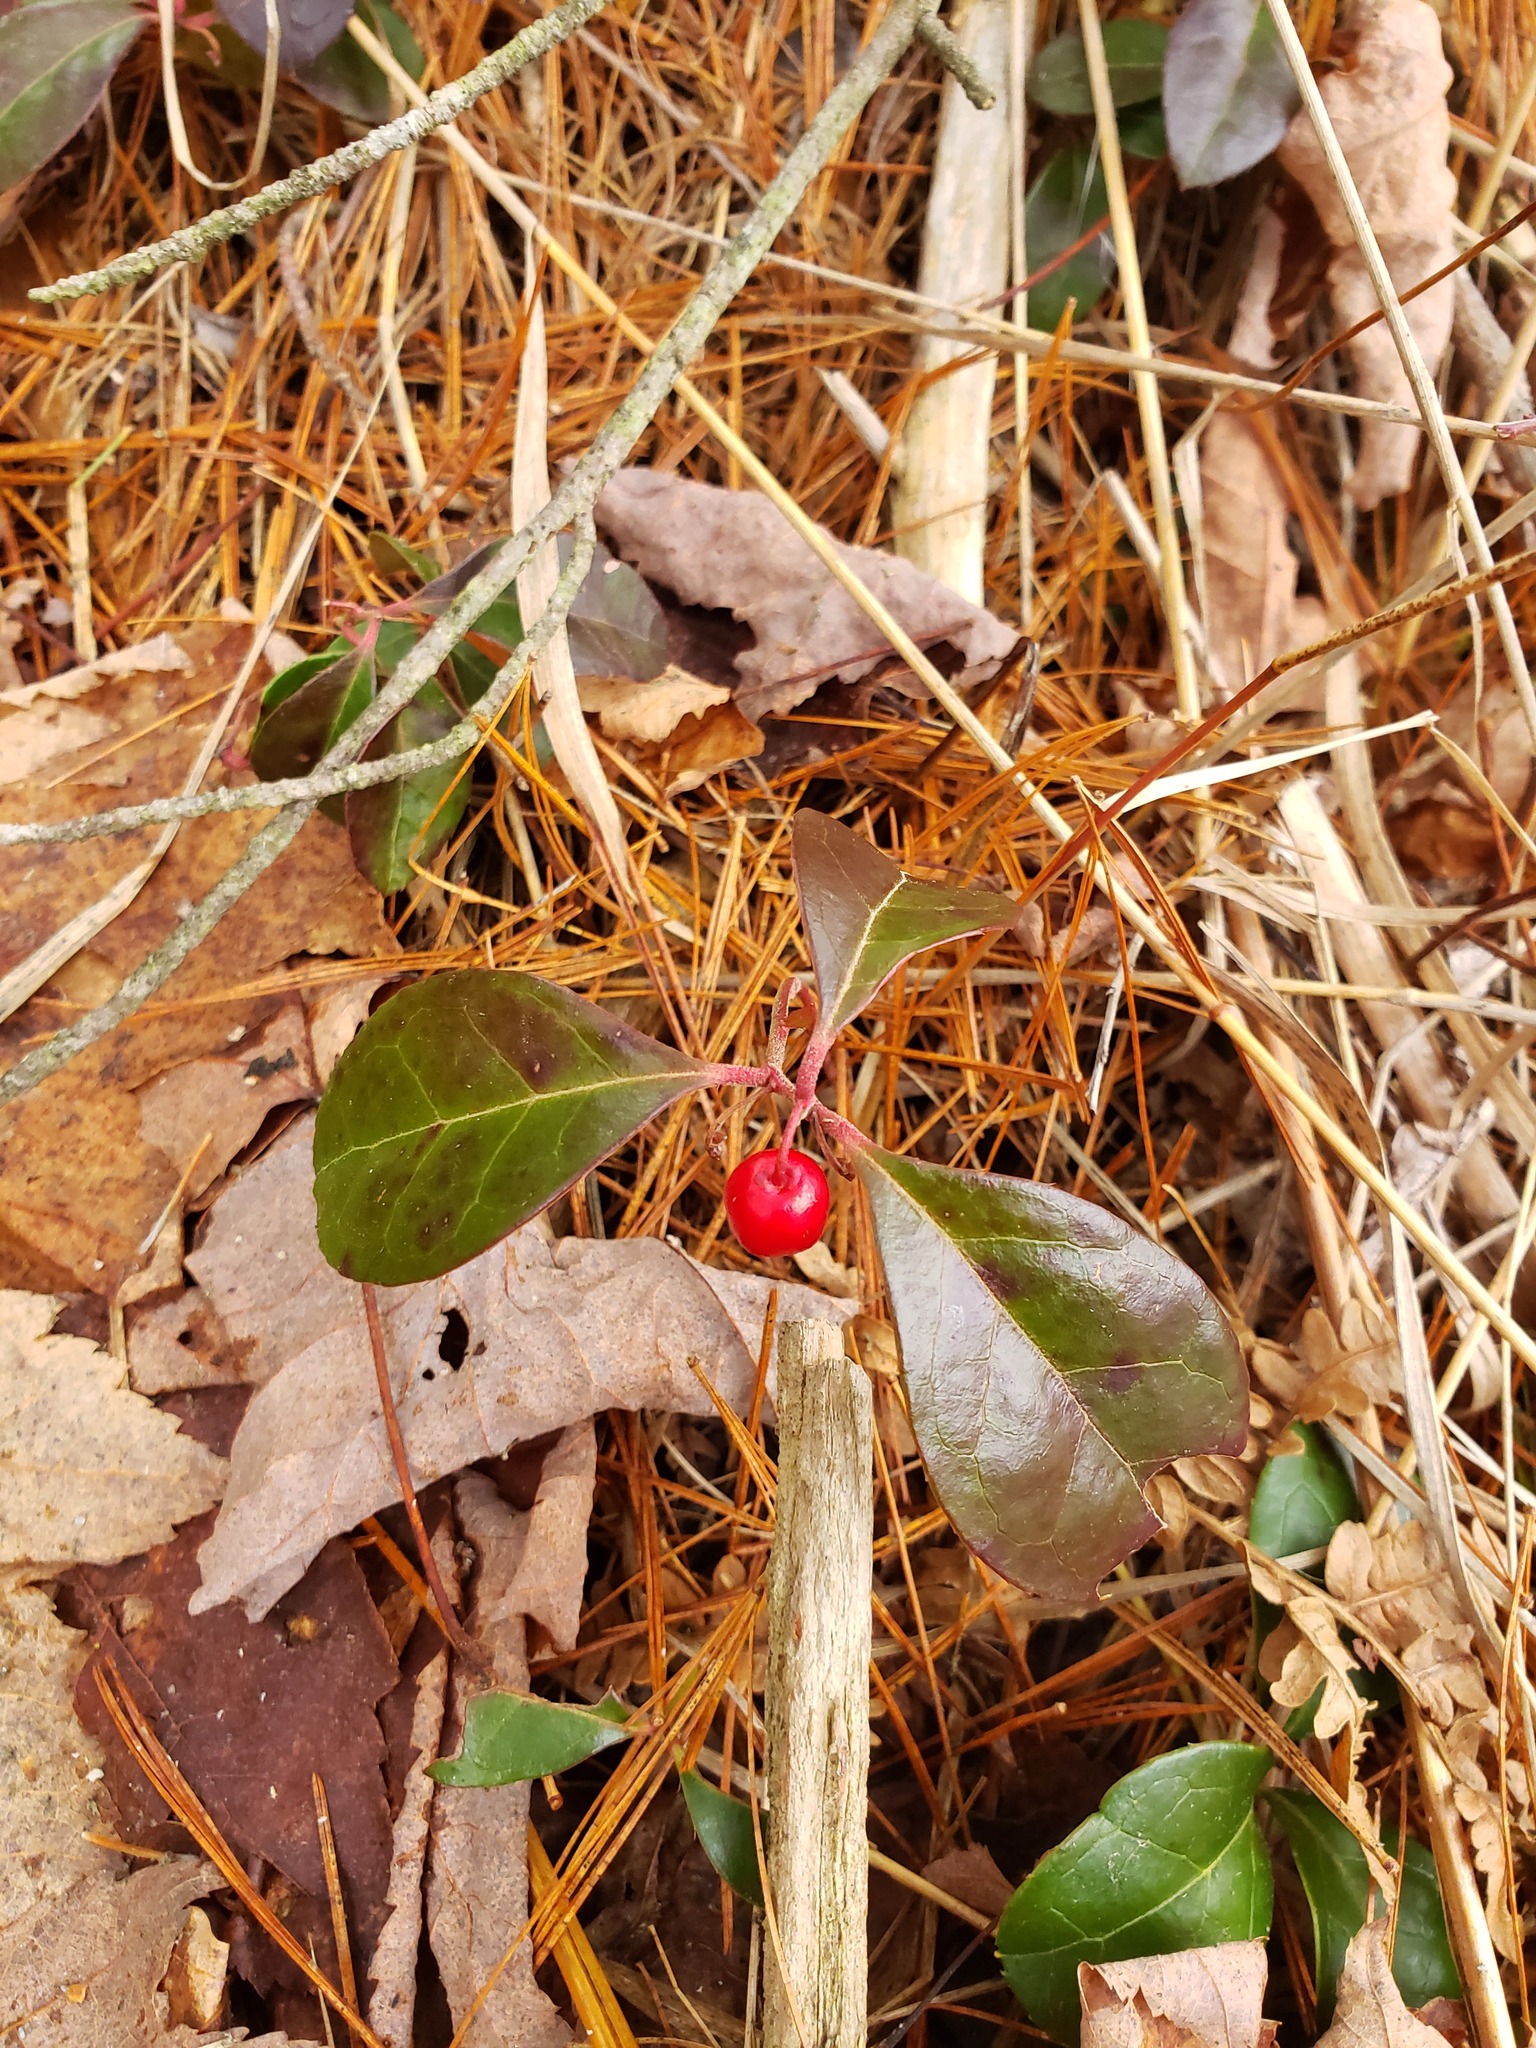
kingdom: Plantae
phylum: Tracheophyta
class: Magnoliopsida
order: Ericales
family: Ericaceae
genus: Gaultheria
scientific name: Gaultheria procumbens
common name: Checkerberry
